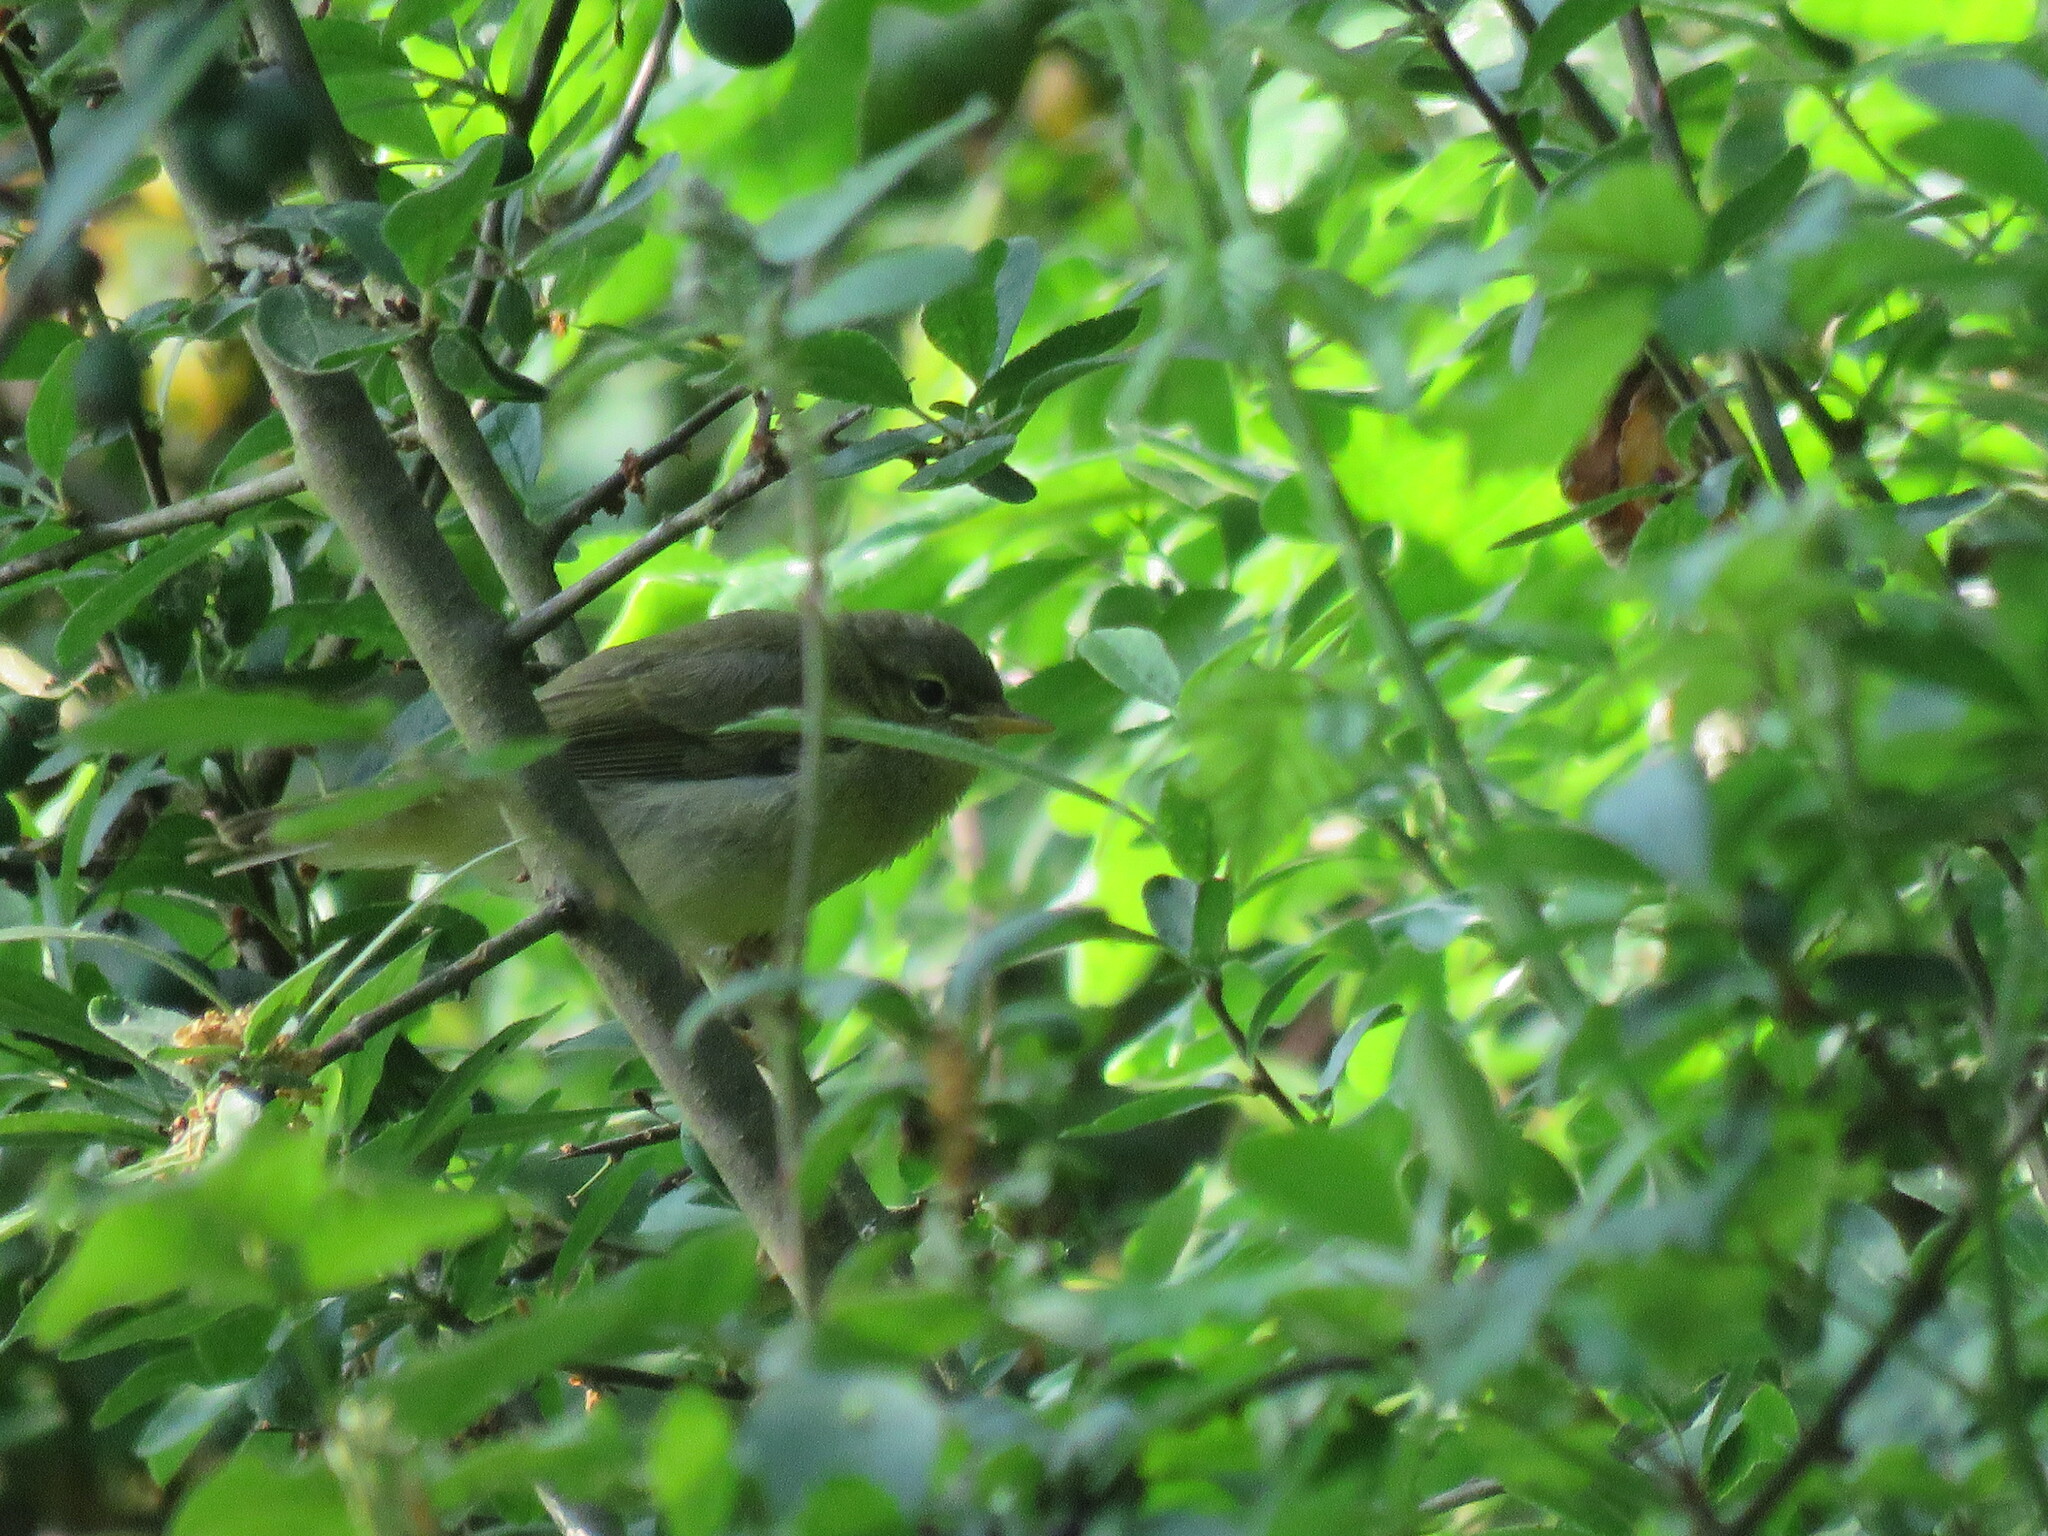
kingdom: Animalia
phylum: Chordata
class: Aves
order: Passeriformes
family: Phylloscopidae
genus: Phylloscopus
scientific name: Phylloscopus ibericus
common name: Iberian chiffchaff
